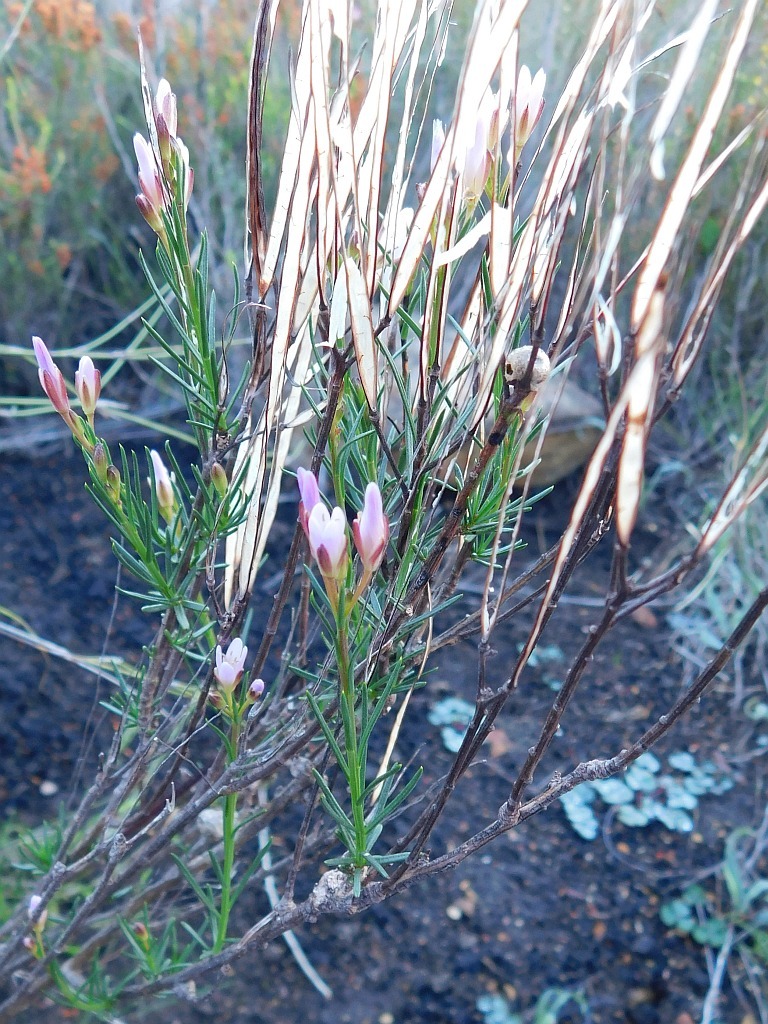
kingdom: Plantae
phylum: Tracheophyta
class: Magnoliopsida
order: Brassicales
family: Brassicaceae
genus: Heliophila
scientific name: Heliophila scoparia
